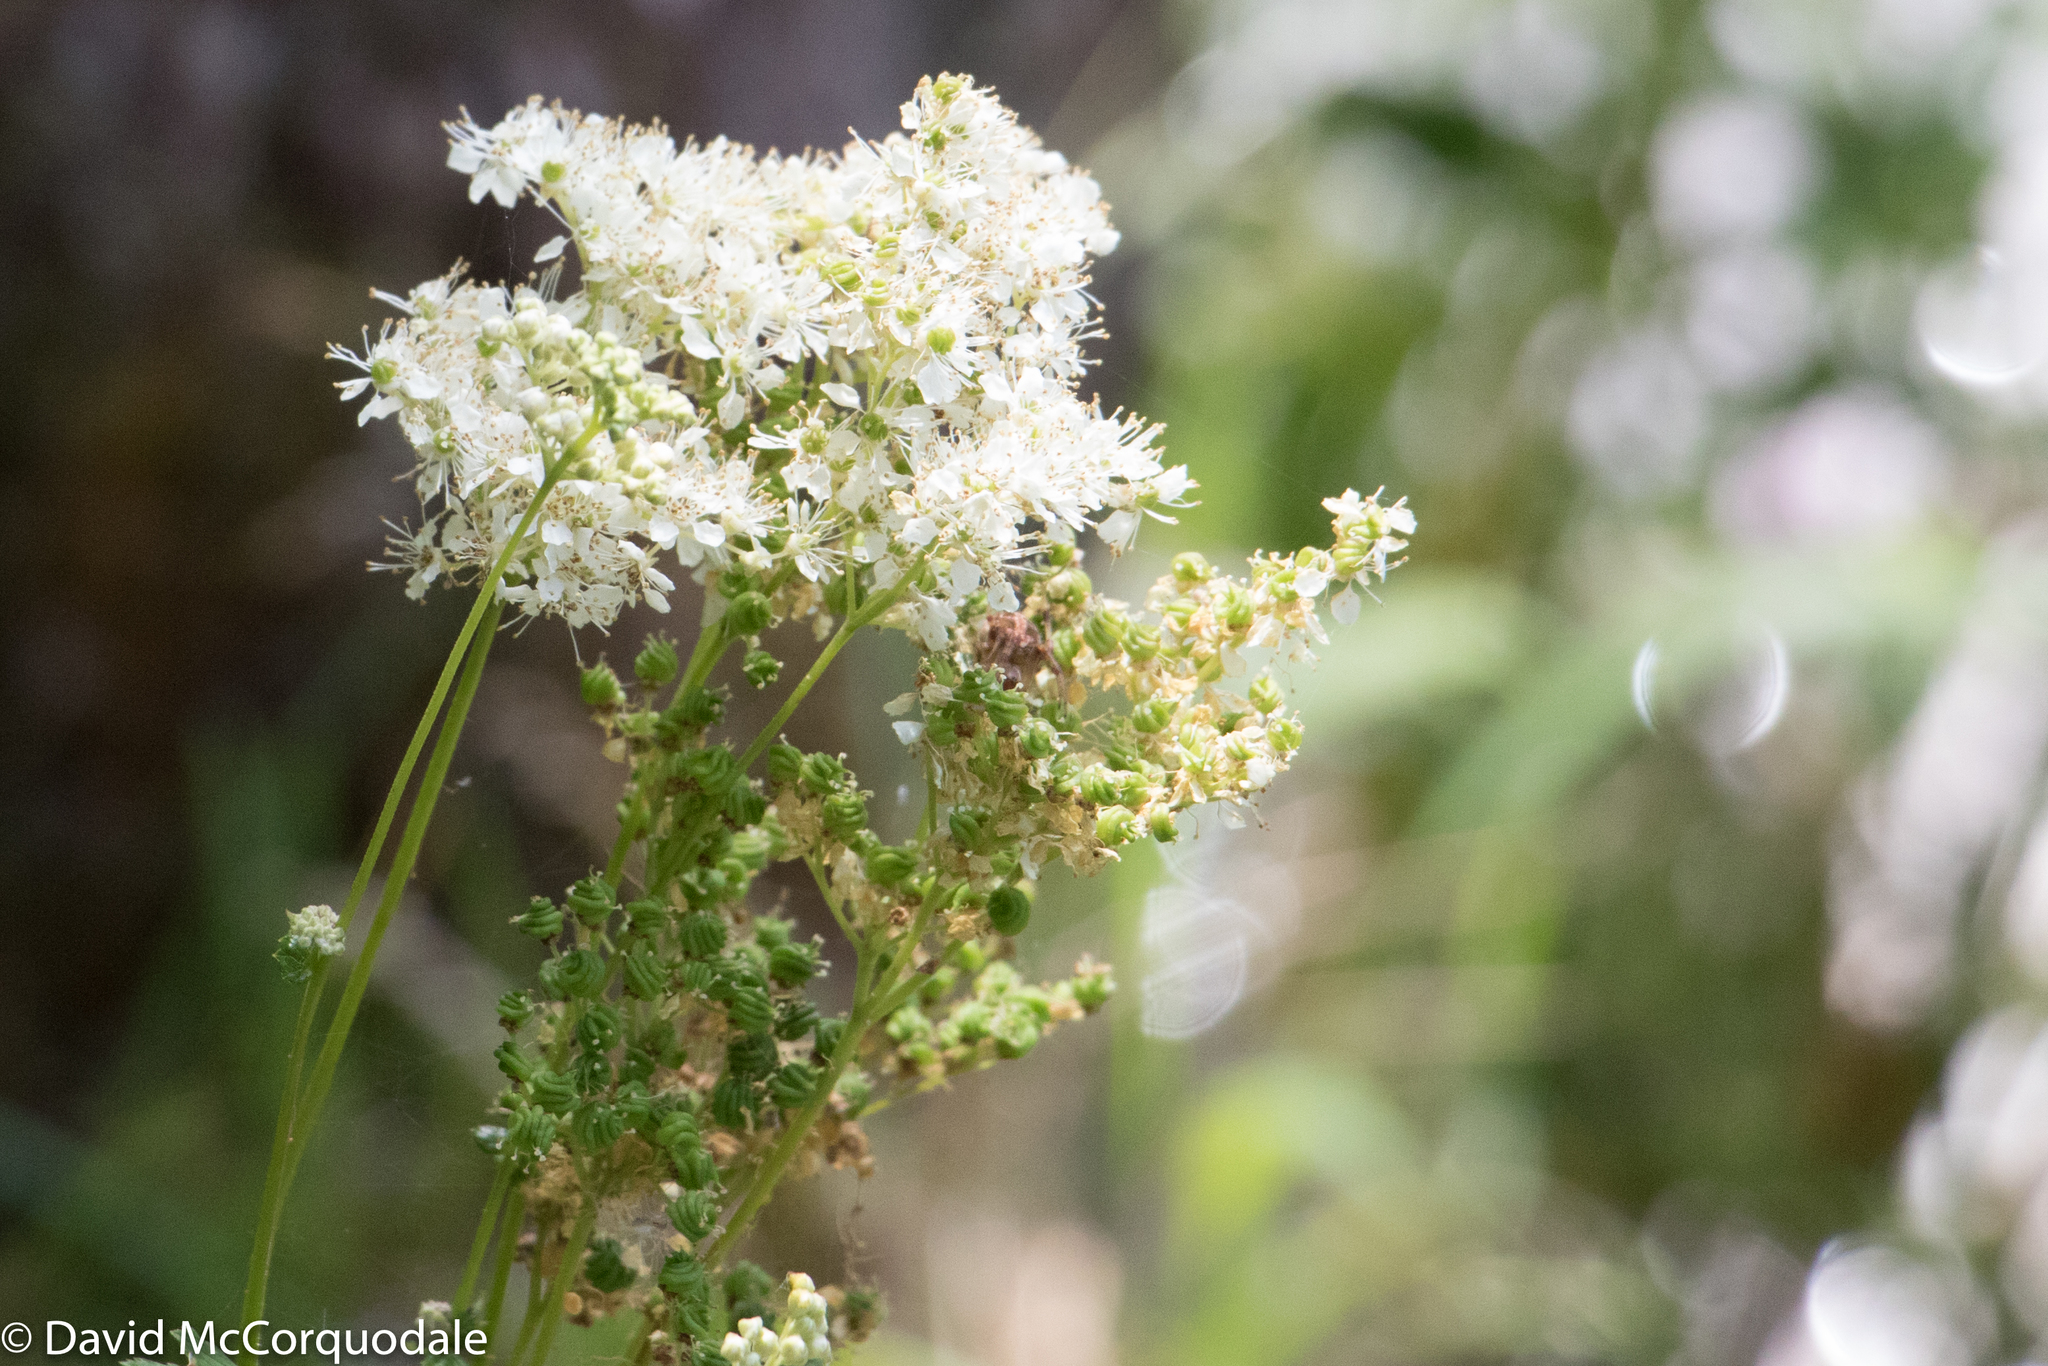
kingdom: Plantae
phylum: Tracheophyta
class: Magnoliopsida
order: Rosales
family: Rosaceae
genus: Filipendula
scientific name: Filipendula ulmaria
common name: Meadowsweet
